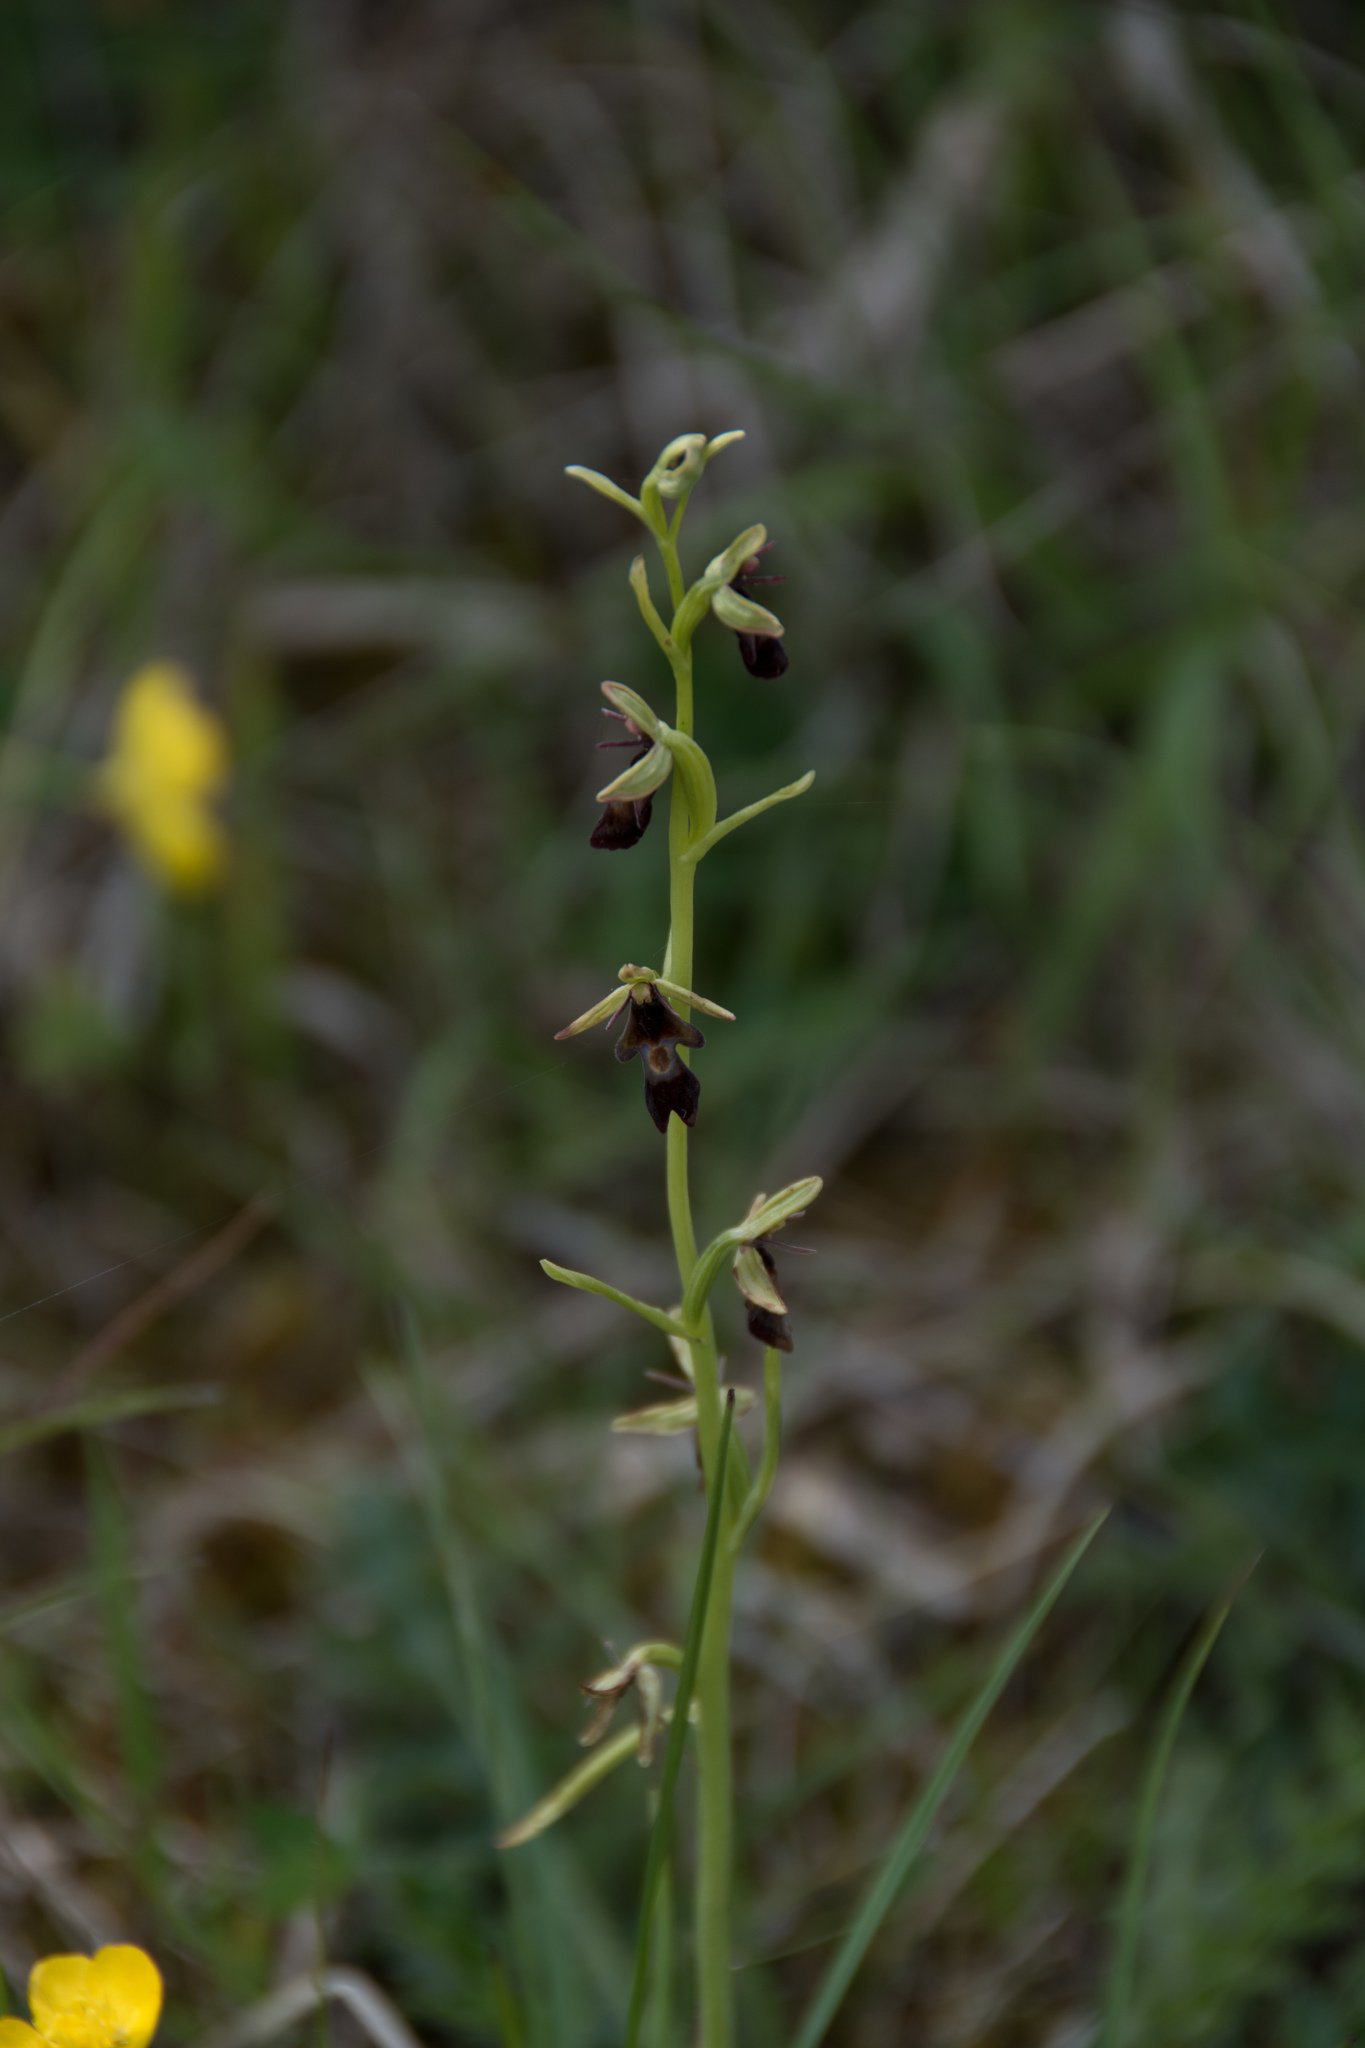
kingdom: Plantae
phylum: Tracheophyta
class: Liliopsida
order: Asparagales
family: Orchidaceae
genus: Ophrys
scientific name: Ophrys insectifera
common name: Fly orchid
